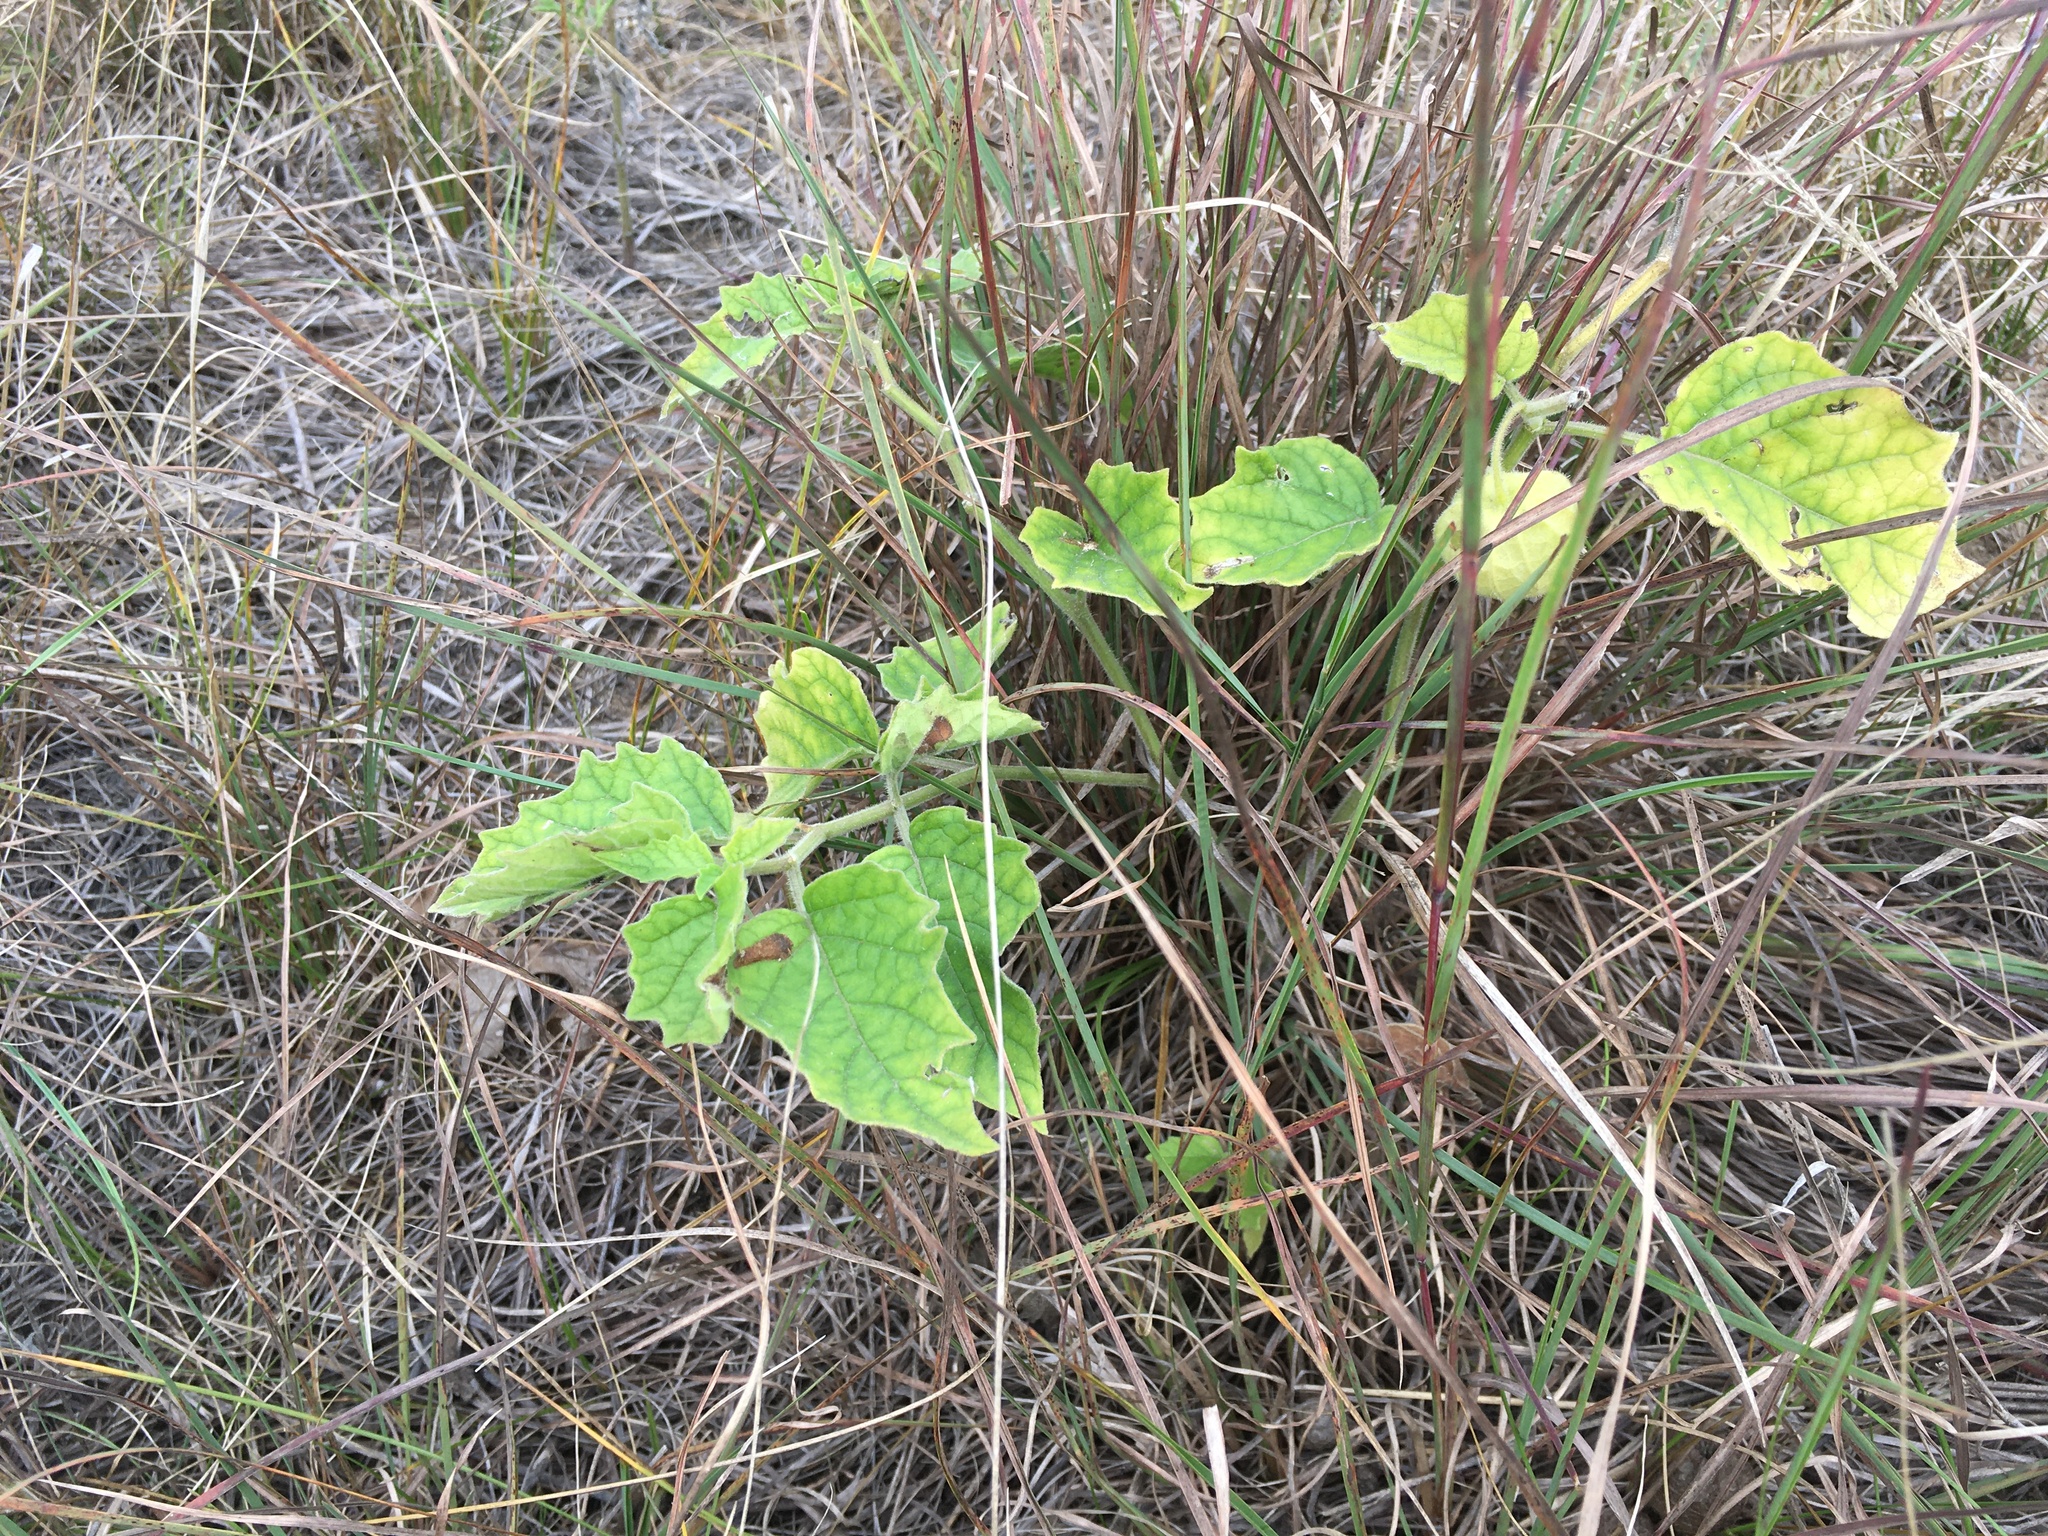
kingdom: Plantae
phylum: Tracheophyta
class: Magnoliopsida
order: Solanales
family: Solanaceae
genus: Physalis
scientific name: Physalis heterophylla
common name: Clammy ground-cherry
